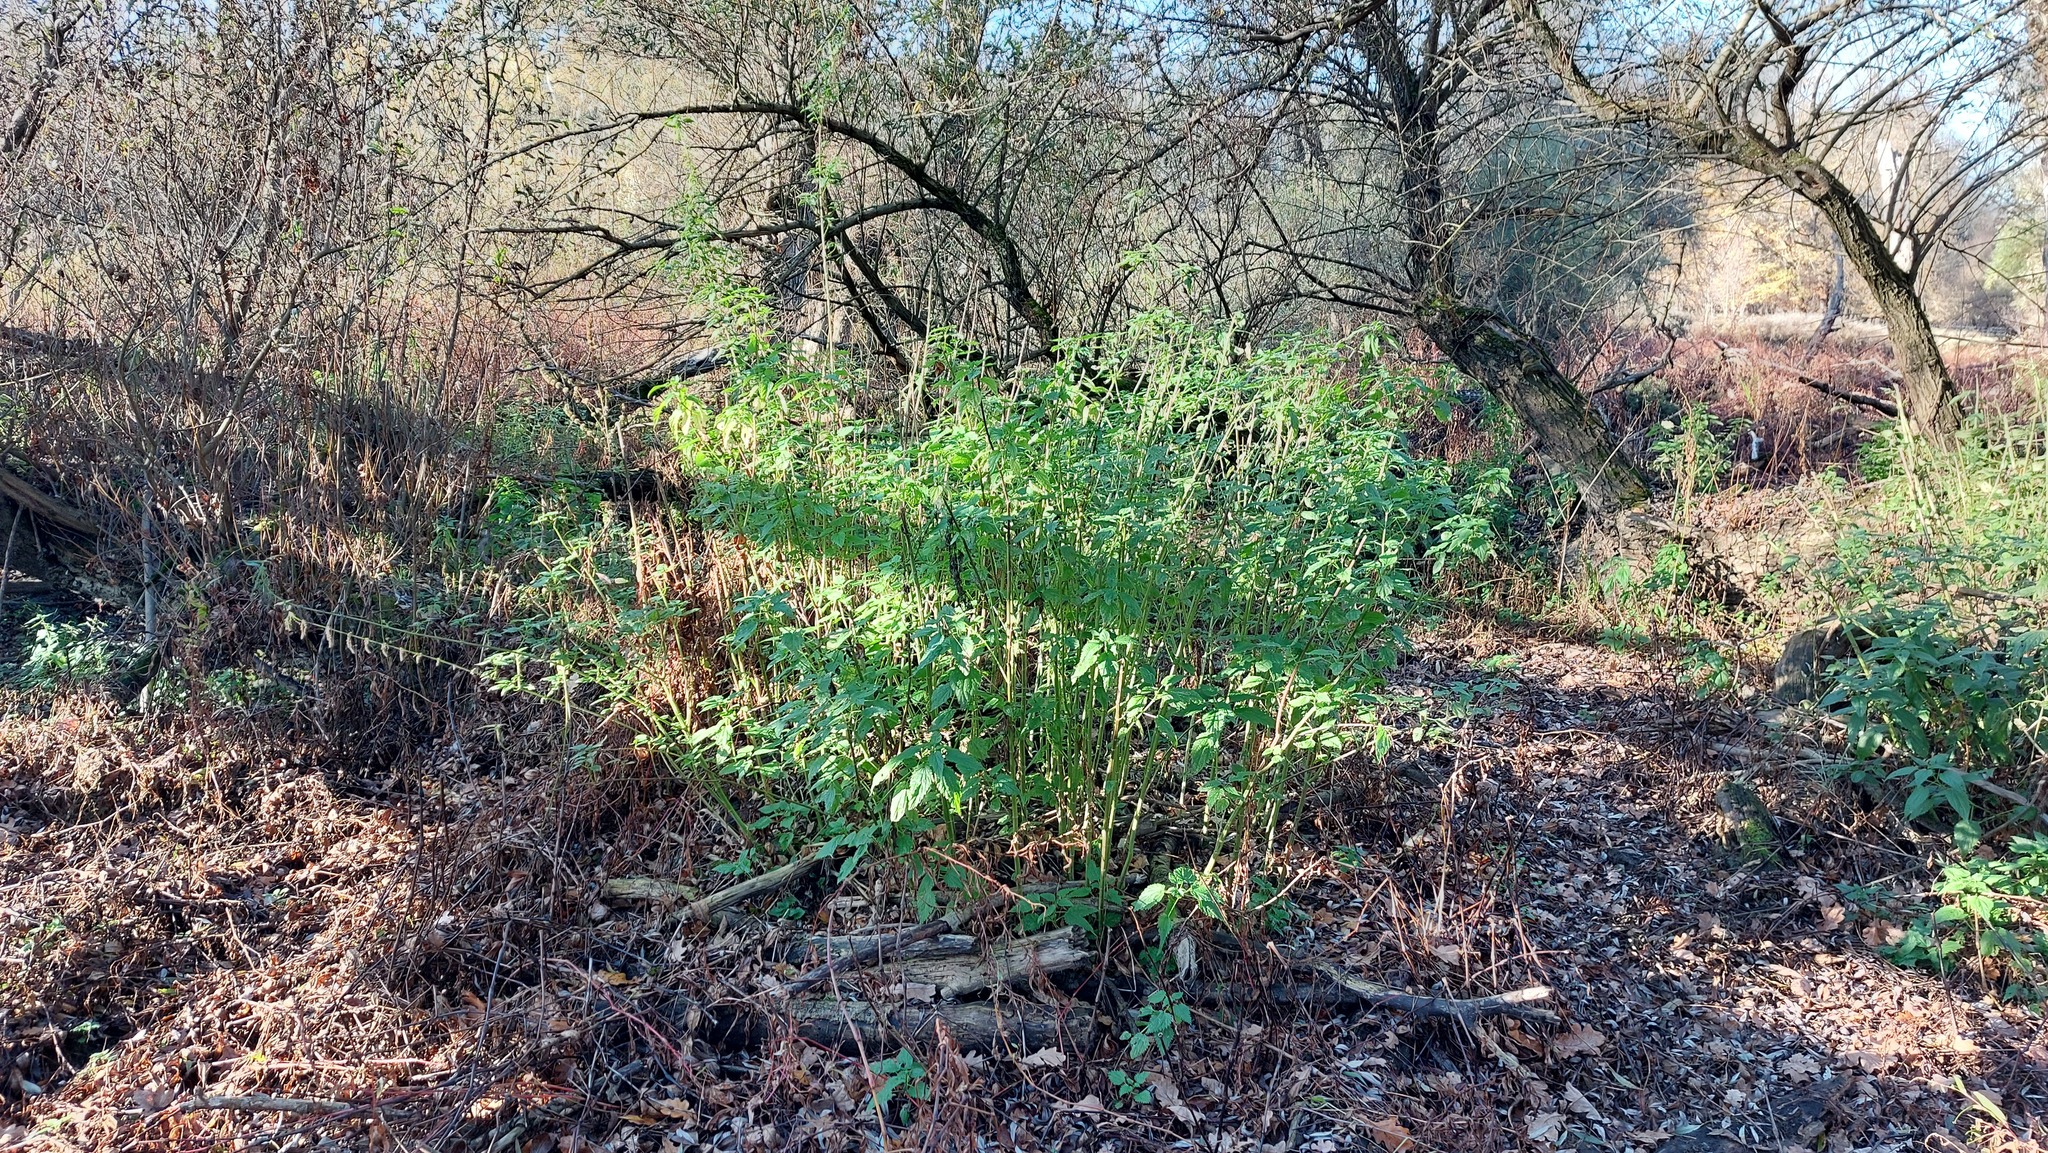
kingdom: Plantae
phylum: Tracheophyta
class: Magnoliopsida
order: Rosales
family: Urticaceae
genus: Urtica
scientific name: Urtica dioica
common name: Common nettle
